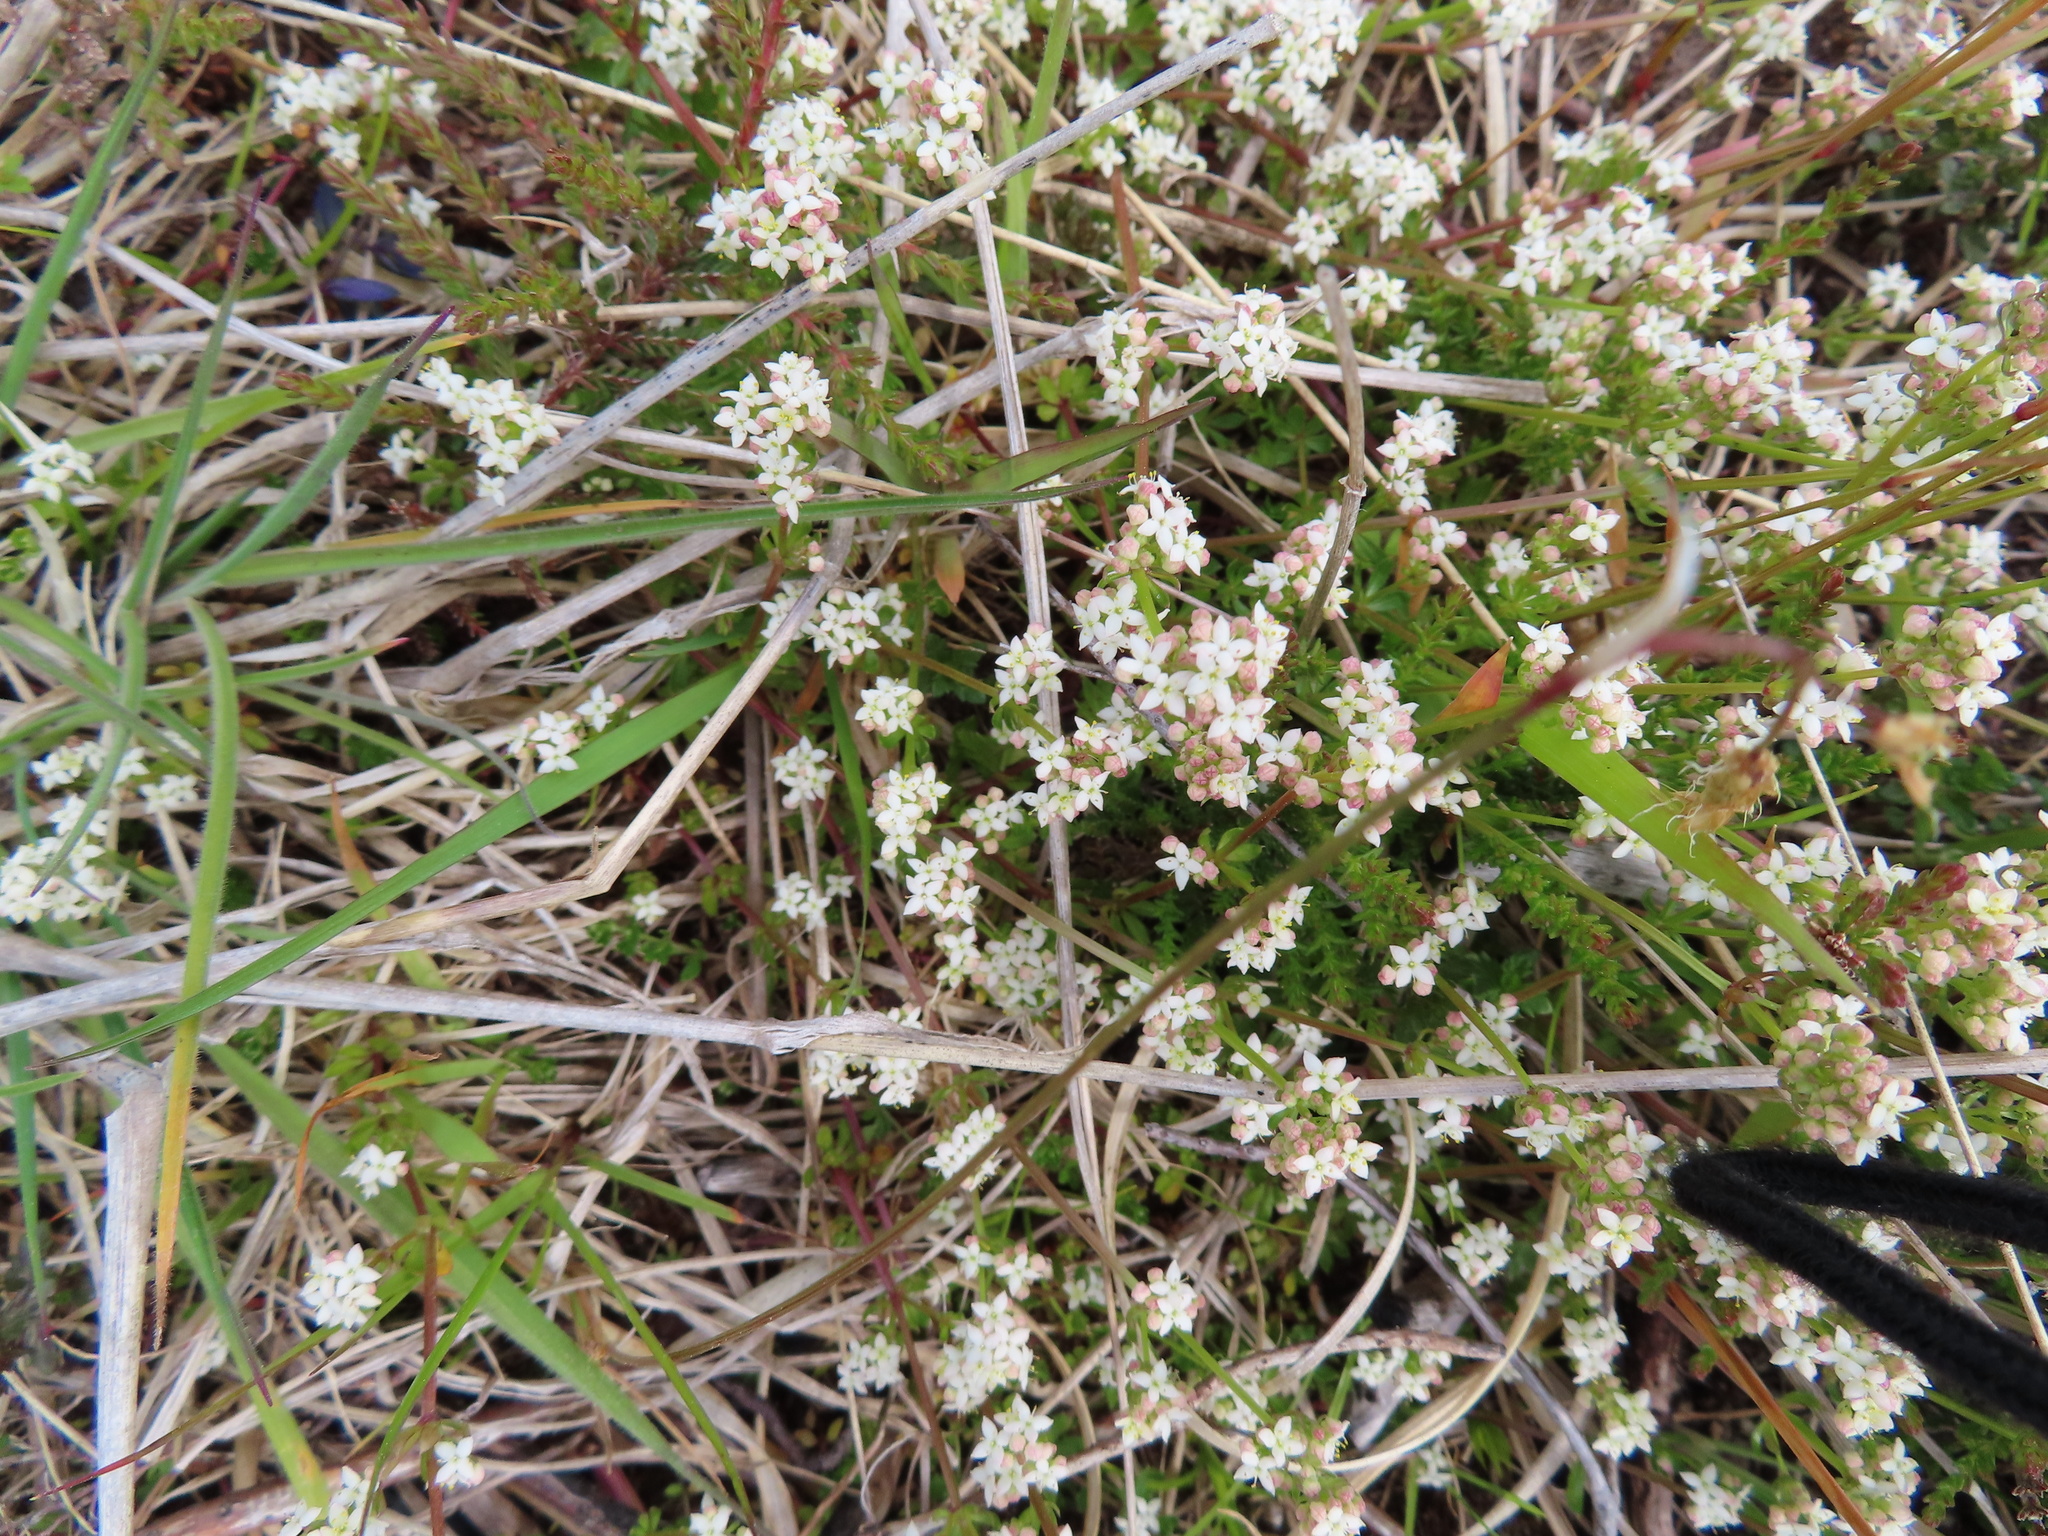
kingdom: Plantae
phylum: Tracheophyta
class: Magnoliopsida
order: Gentianales
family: Rubiaceae
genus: Galium
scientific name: Galium saxatile
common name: Heath bedstraw
